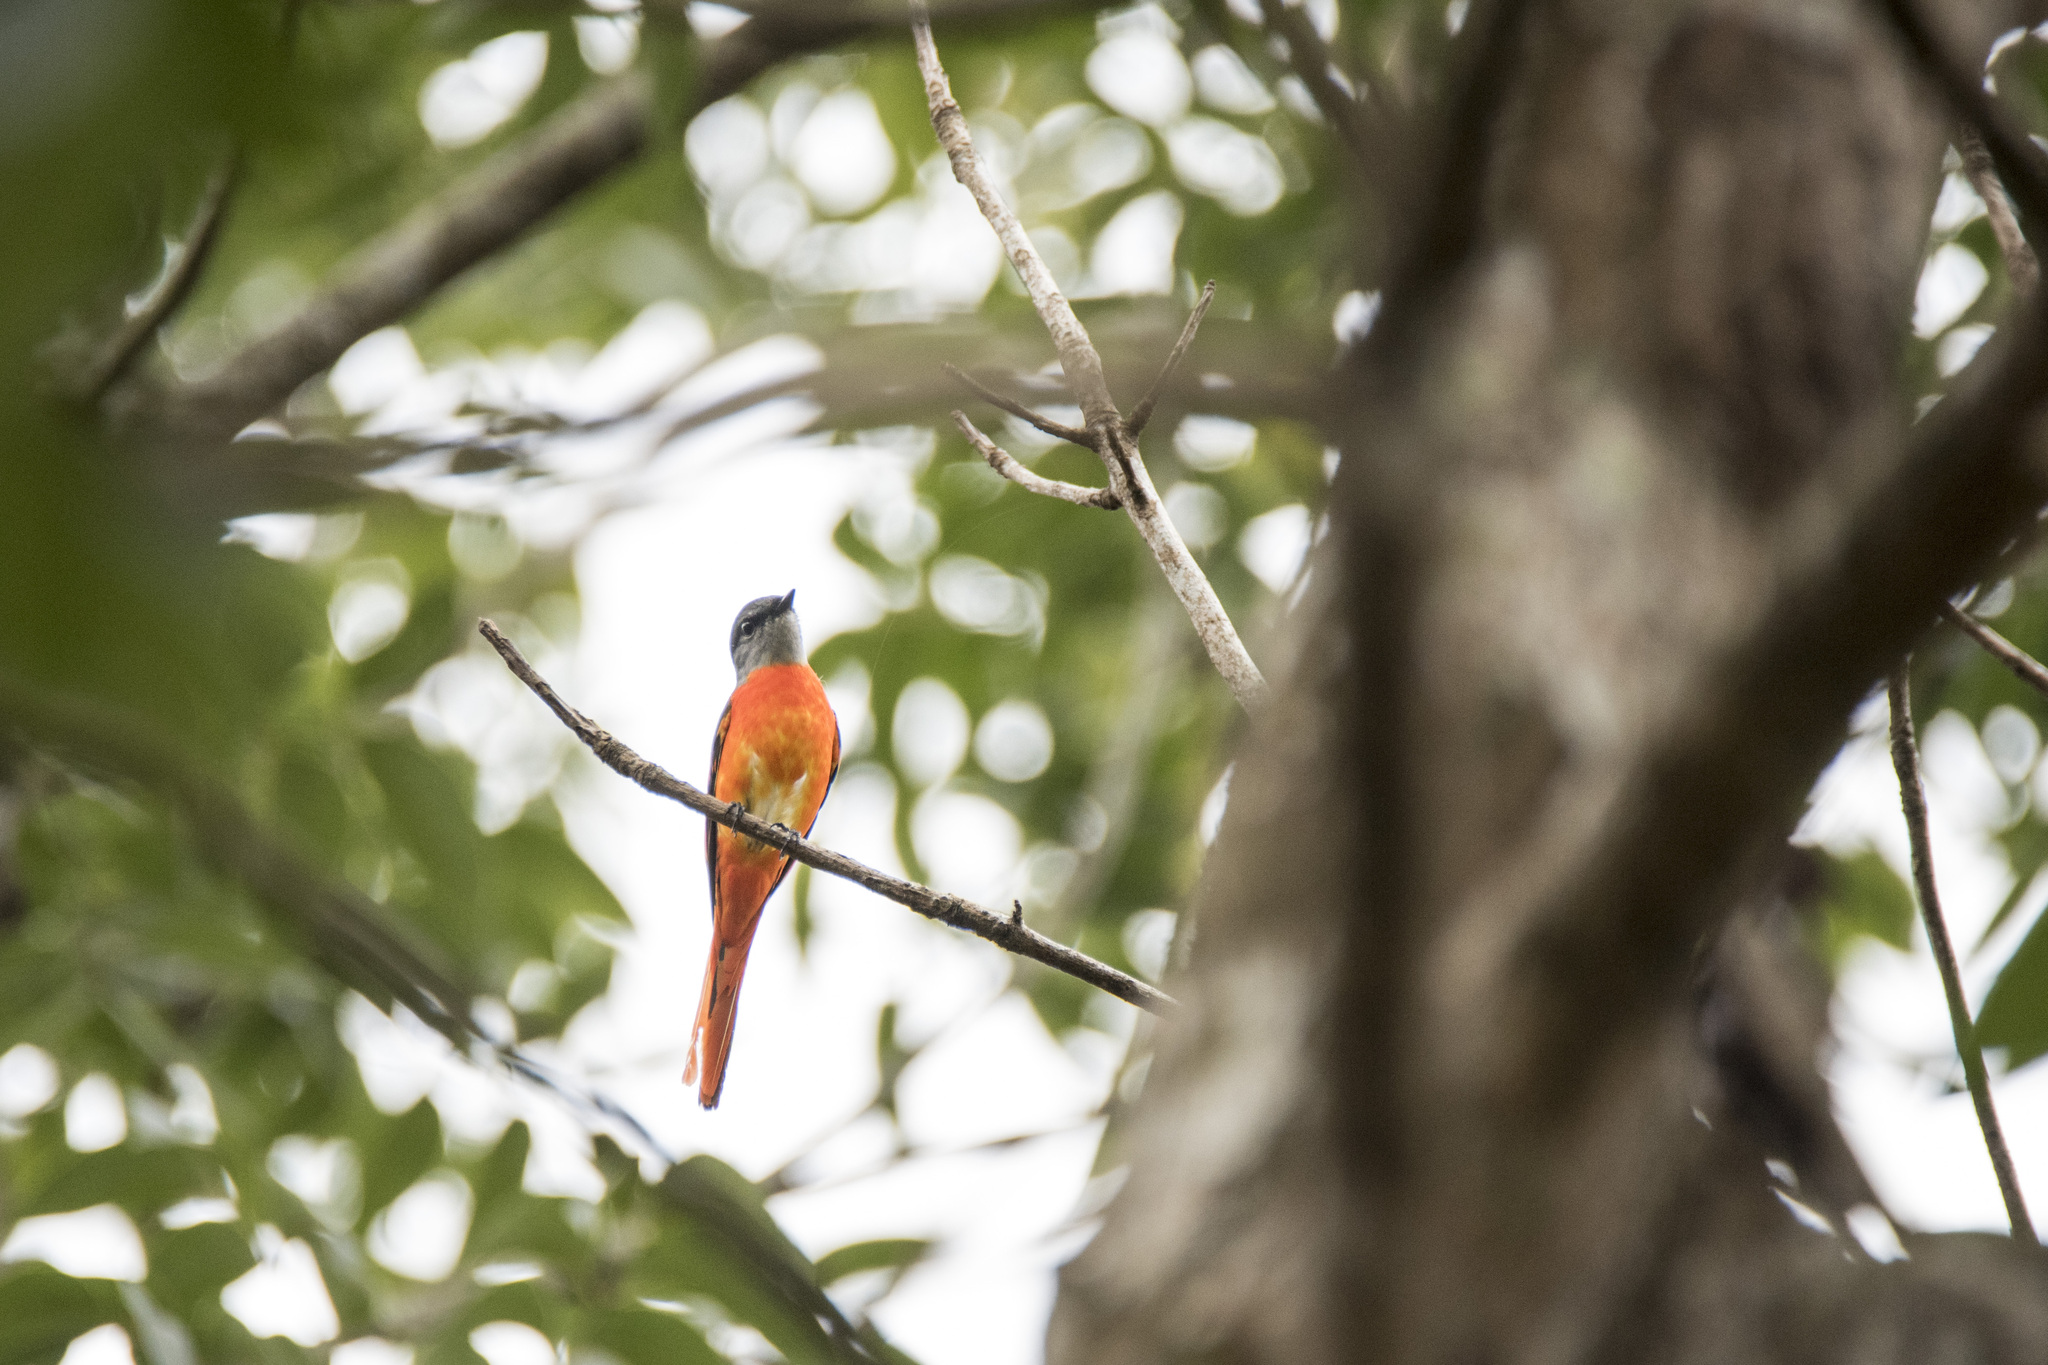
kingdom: Animalia
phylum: Chordata
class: Aves
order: Passeriformes
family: Campephagidae
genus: Pericrocotus
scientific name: Pericrocotus solaris
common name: Grey-chinned minivet
